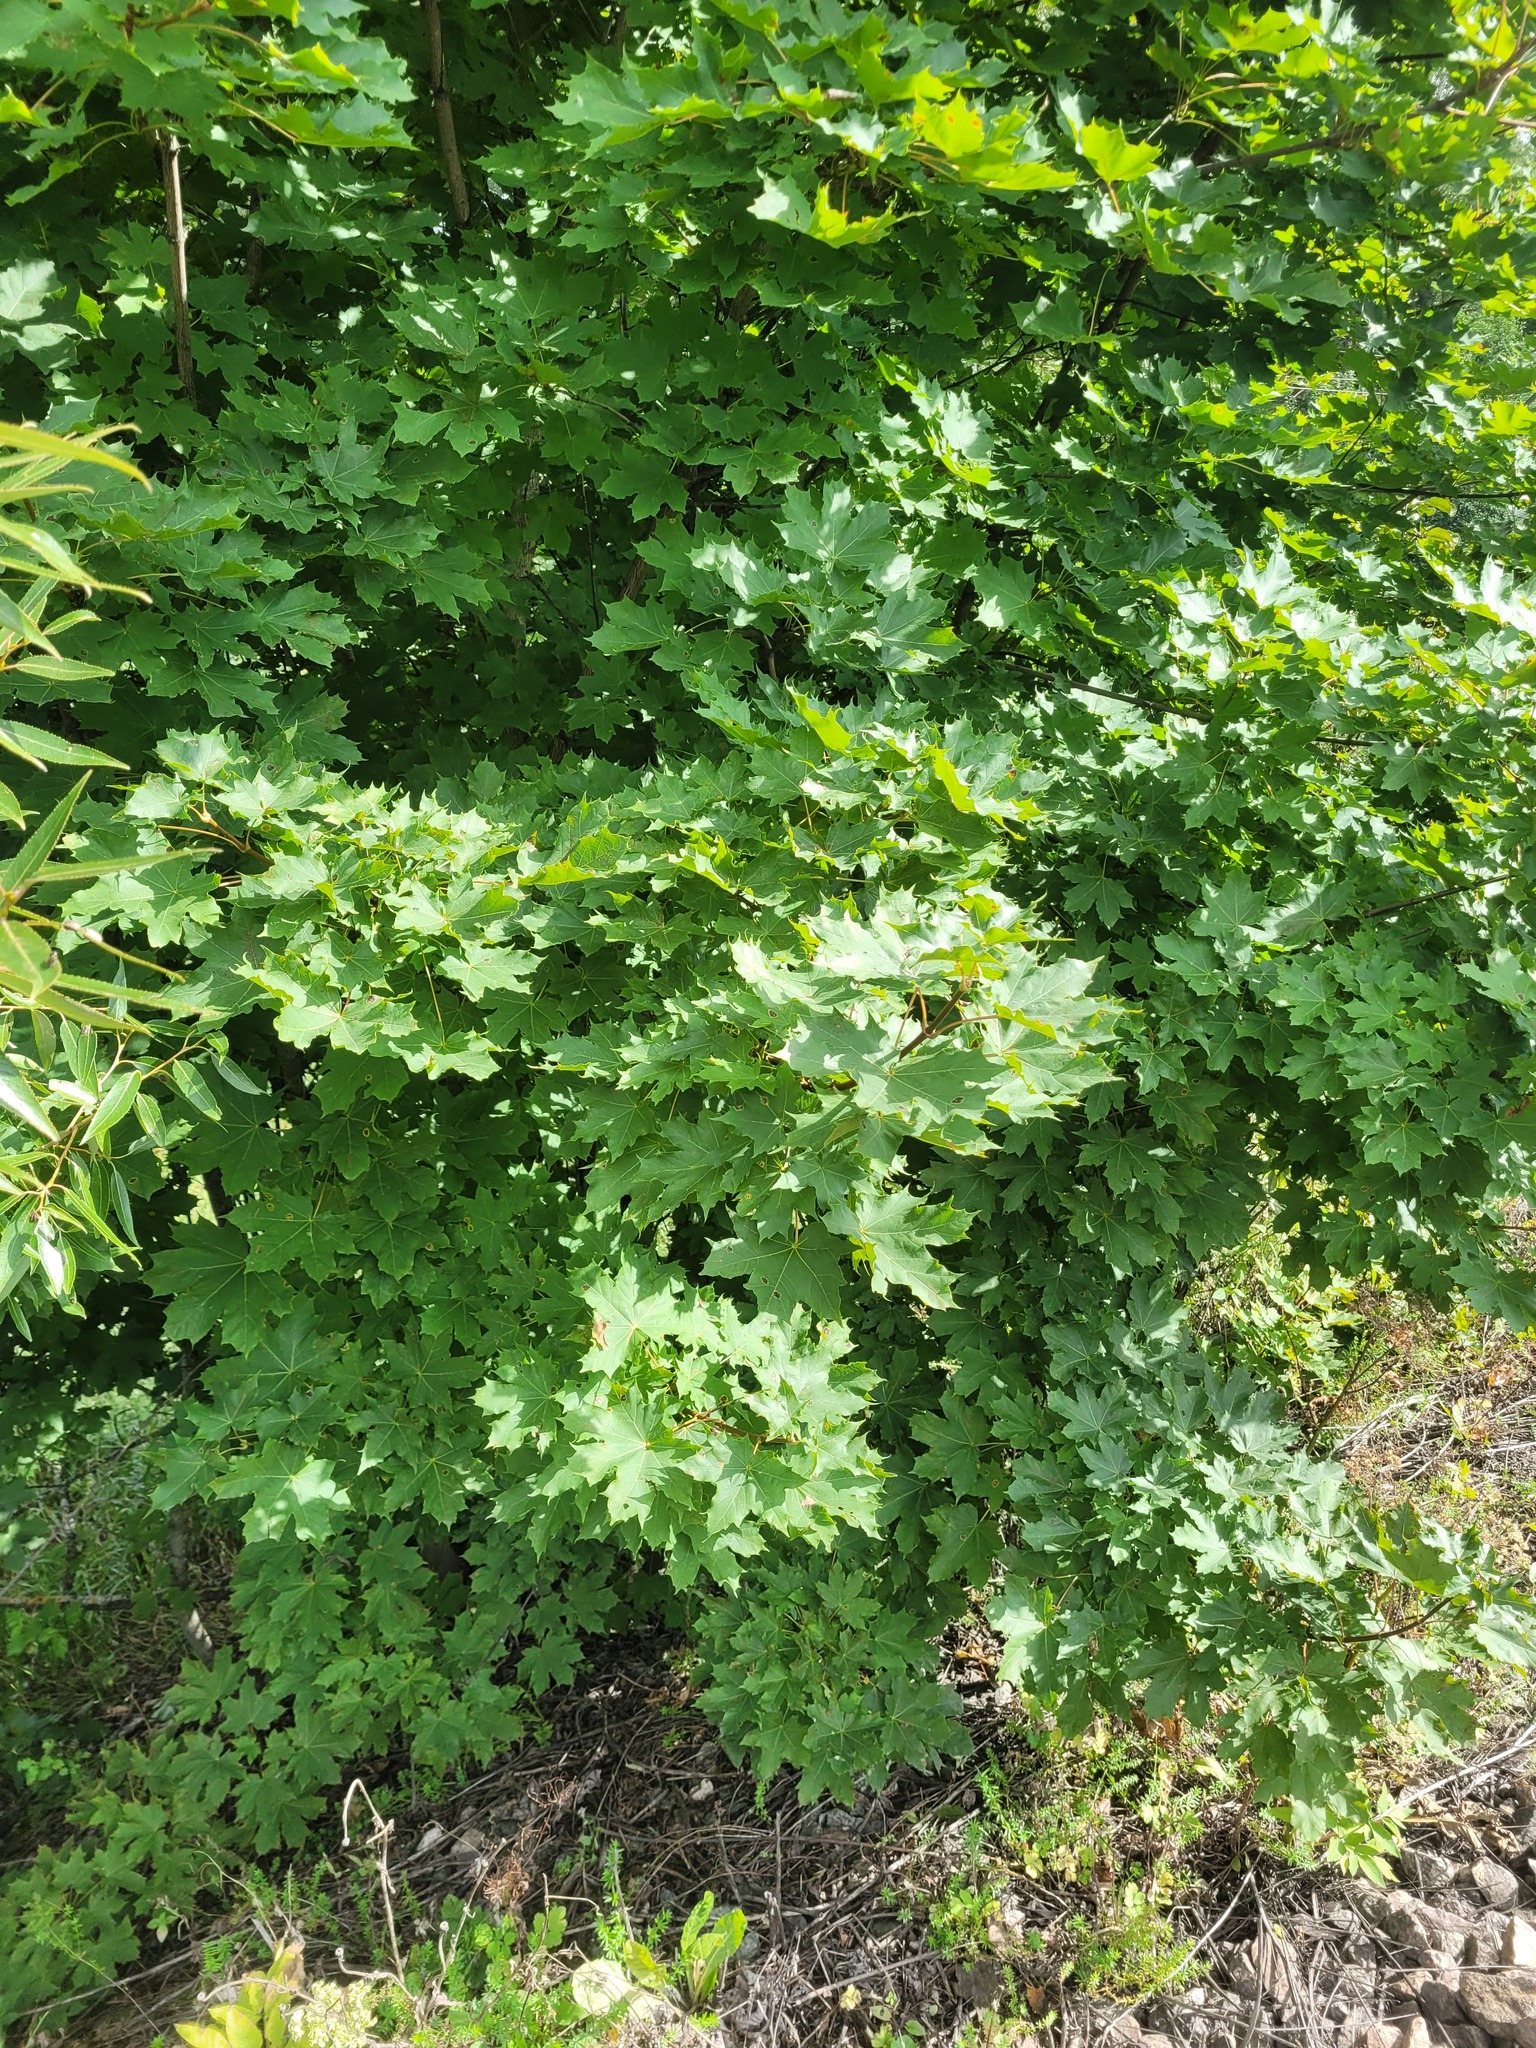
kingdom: Plantae
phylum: Tracheophyta
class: Magnoliopsida
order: Sapindales
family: Sapindaceae
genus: Acer
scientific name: Acer platanoides
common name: Norway maple
